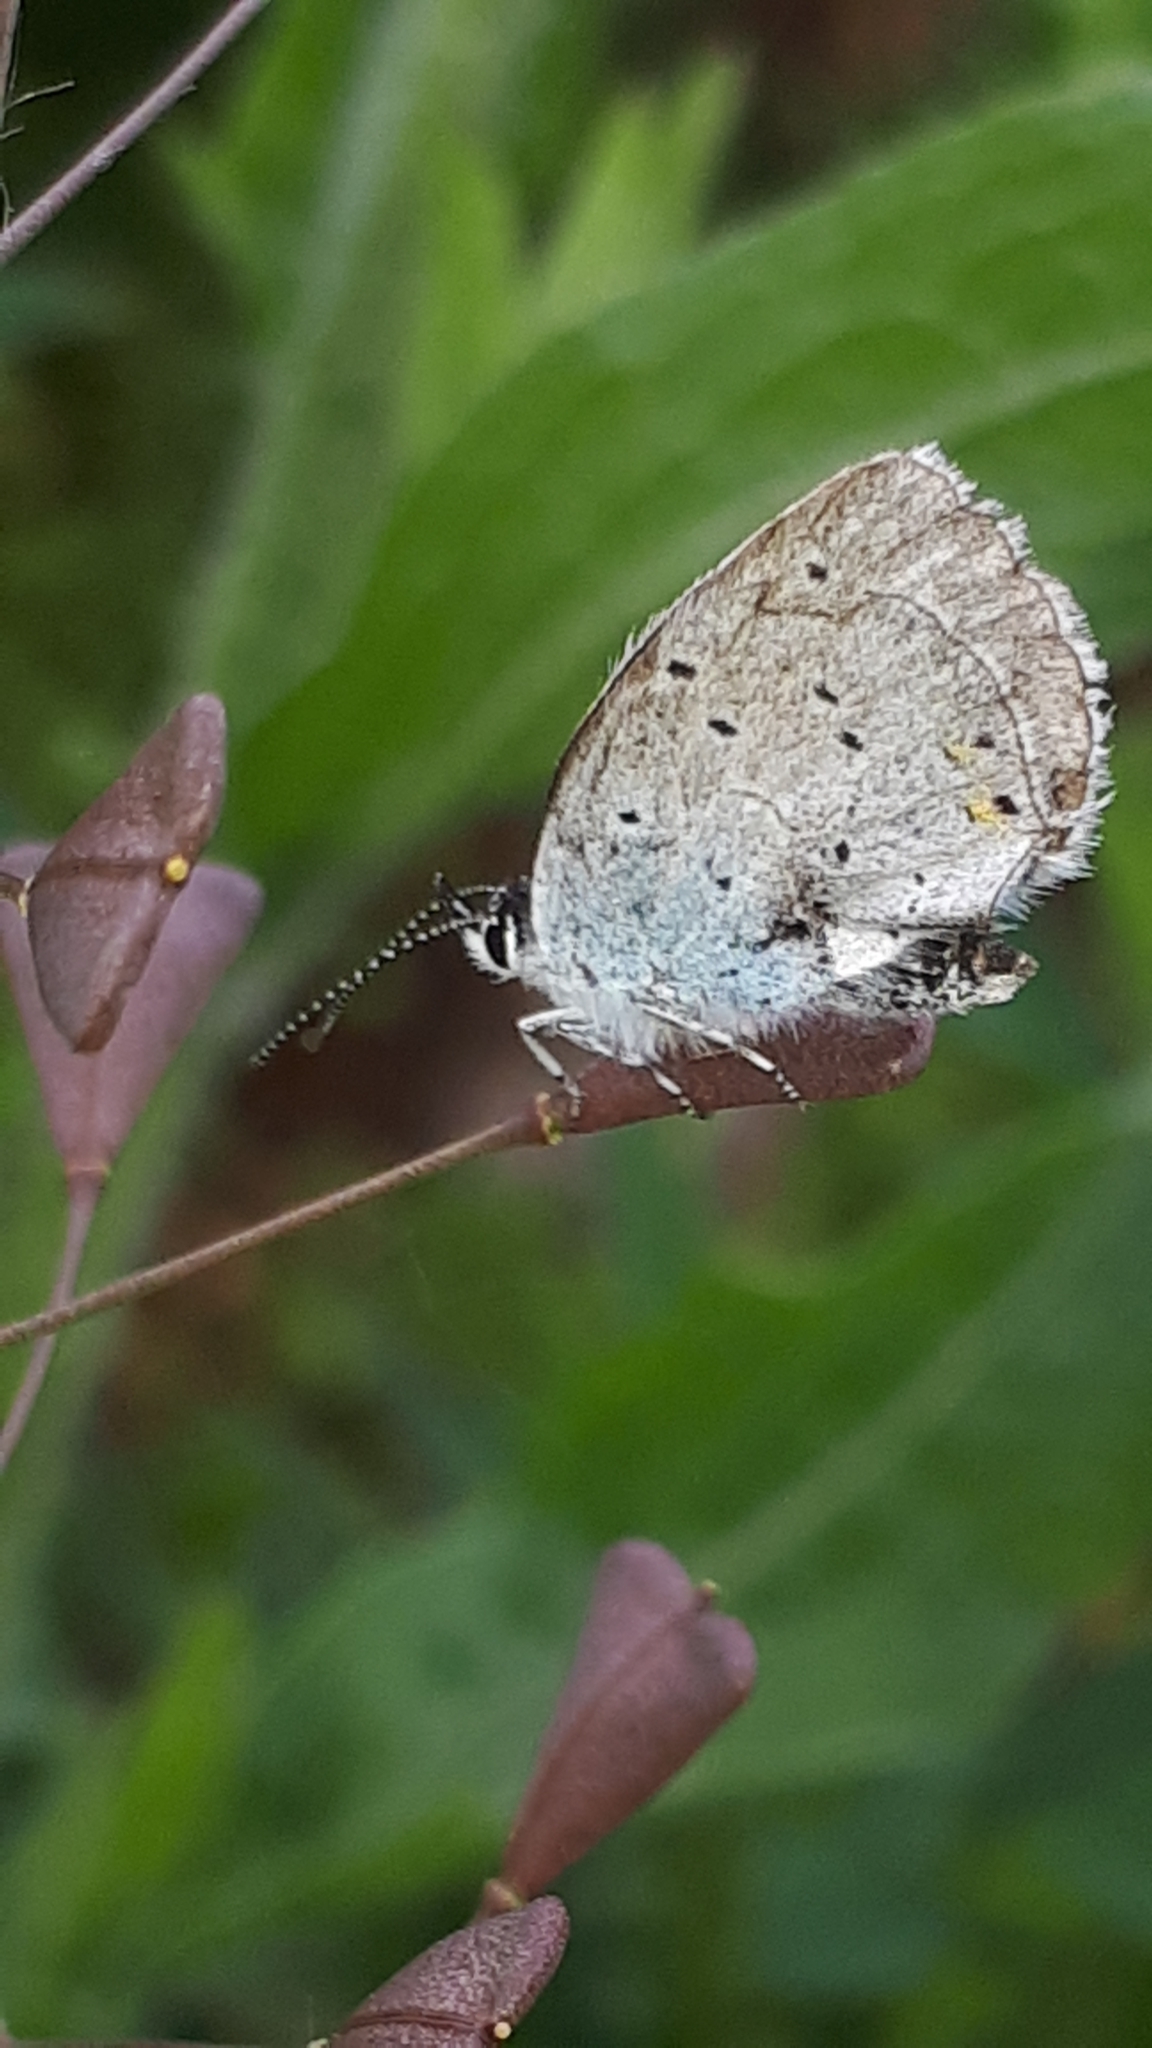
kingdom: Animalia
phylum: Arthropoda
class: Insecta
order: Lepidoptera
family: Lycaenidae
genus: Elkalyce
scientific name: Elkalyce argiades
